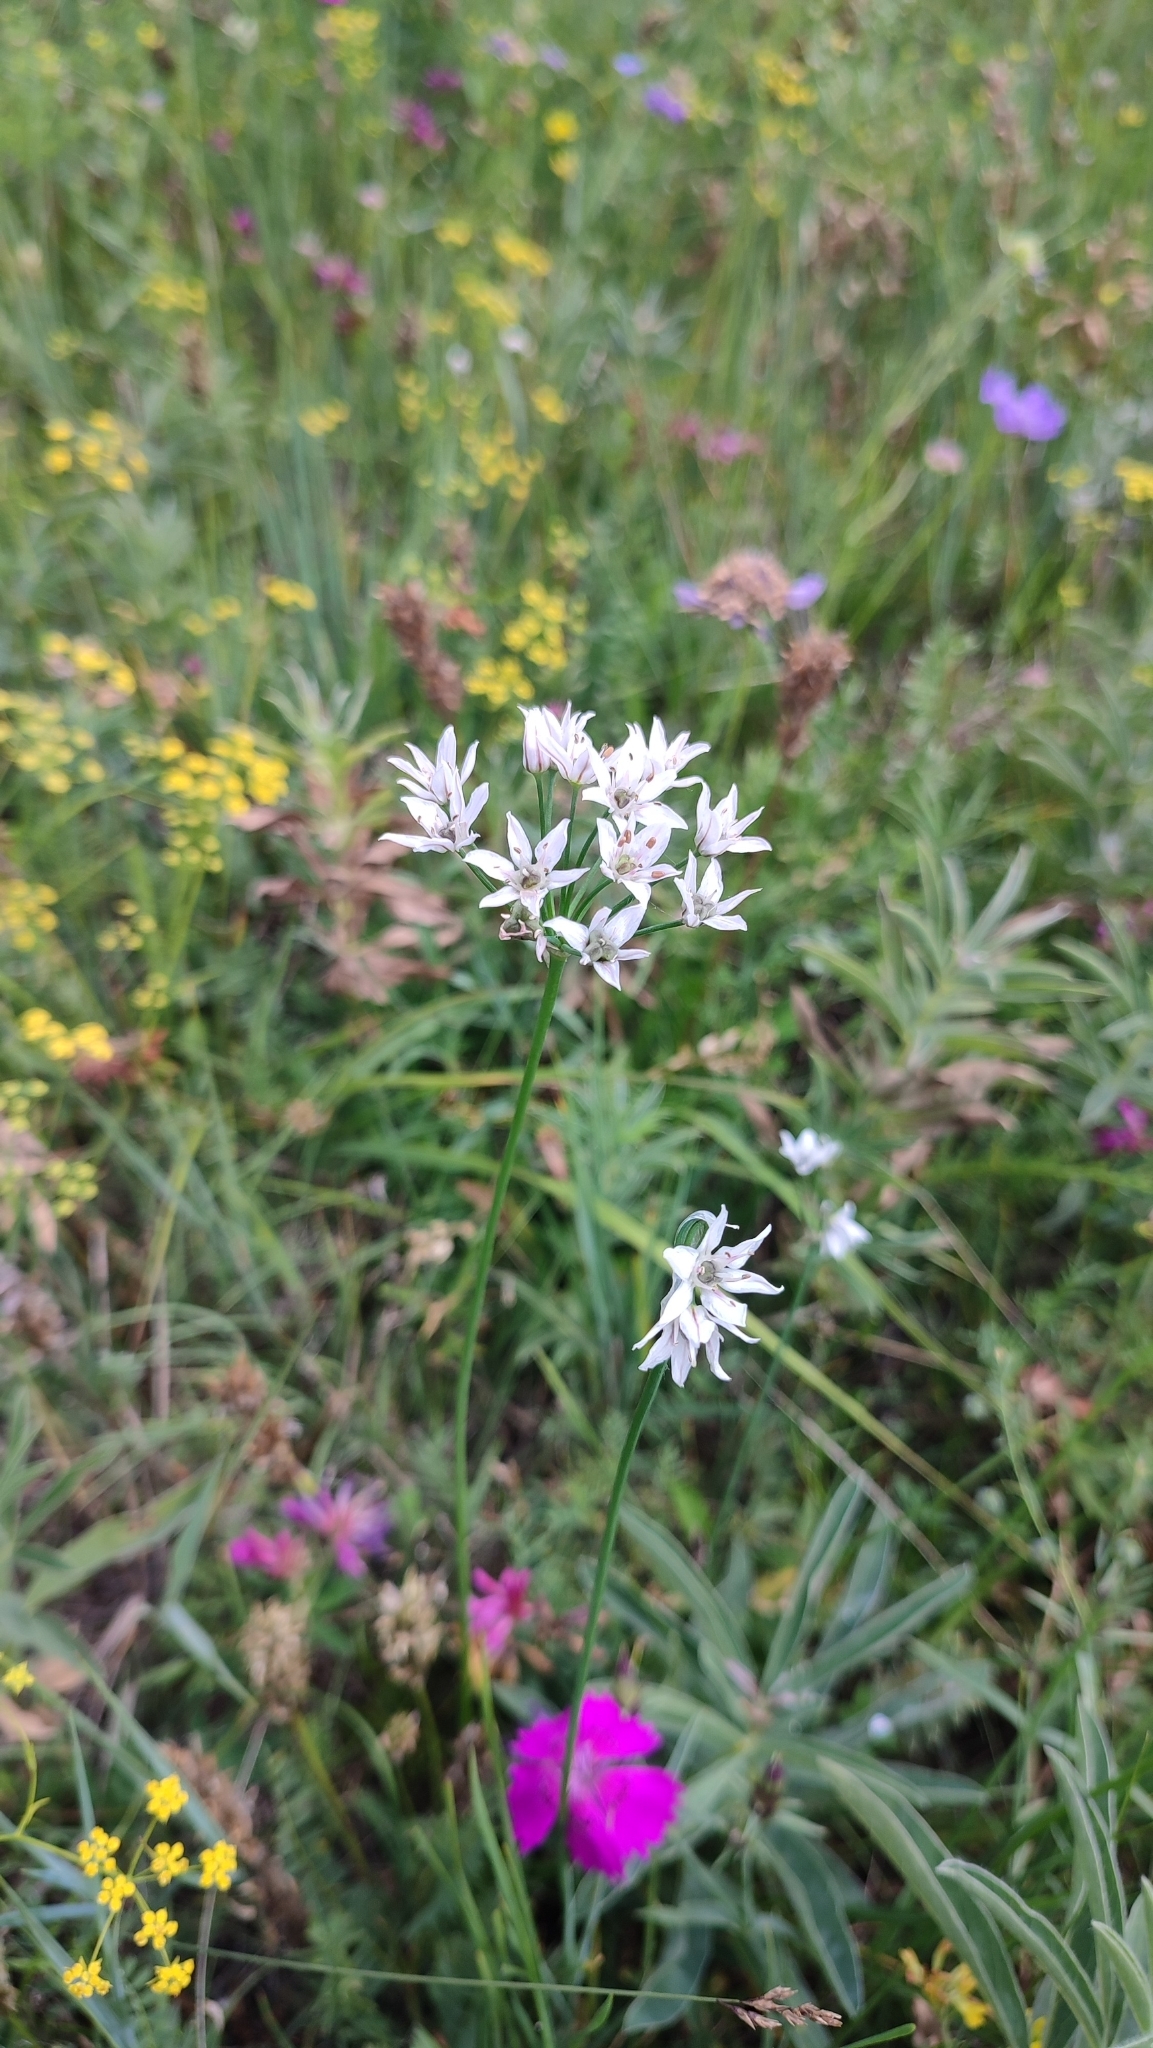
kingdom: Plantae
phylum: Tracheophyta
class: Liliopsida
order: Asparagales
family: Amaryllidaceae
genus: Allium
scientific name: Allium ramosum
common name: Fragrant garlic
